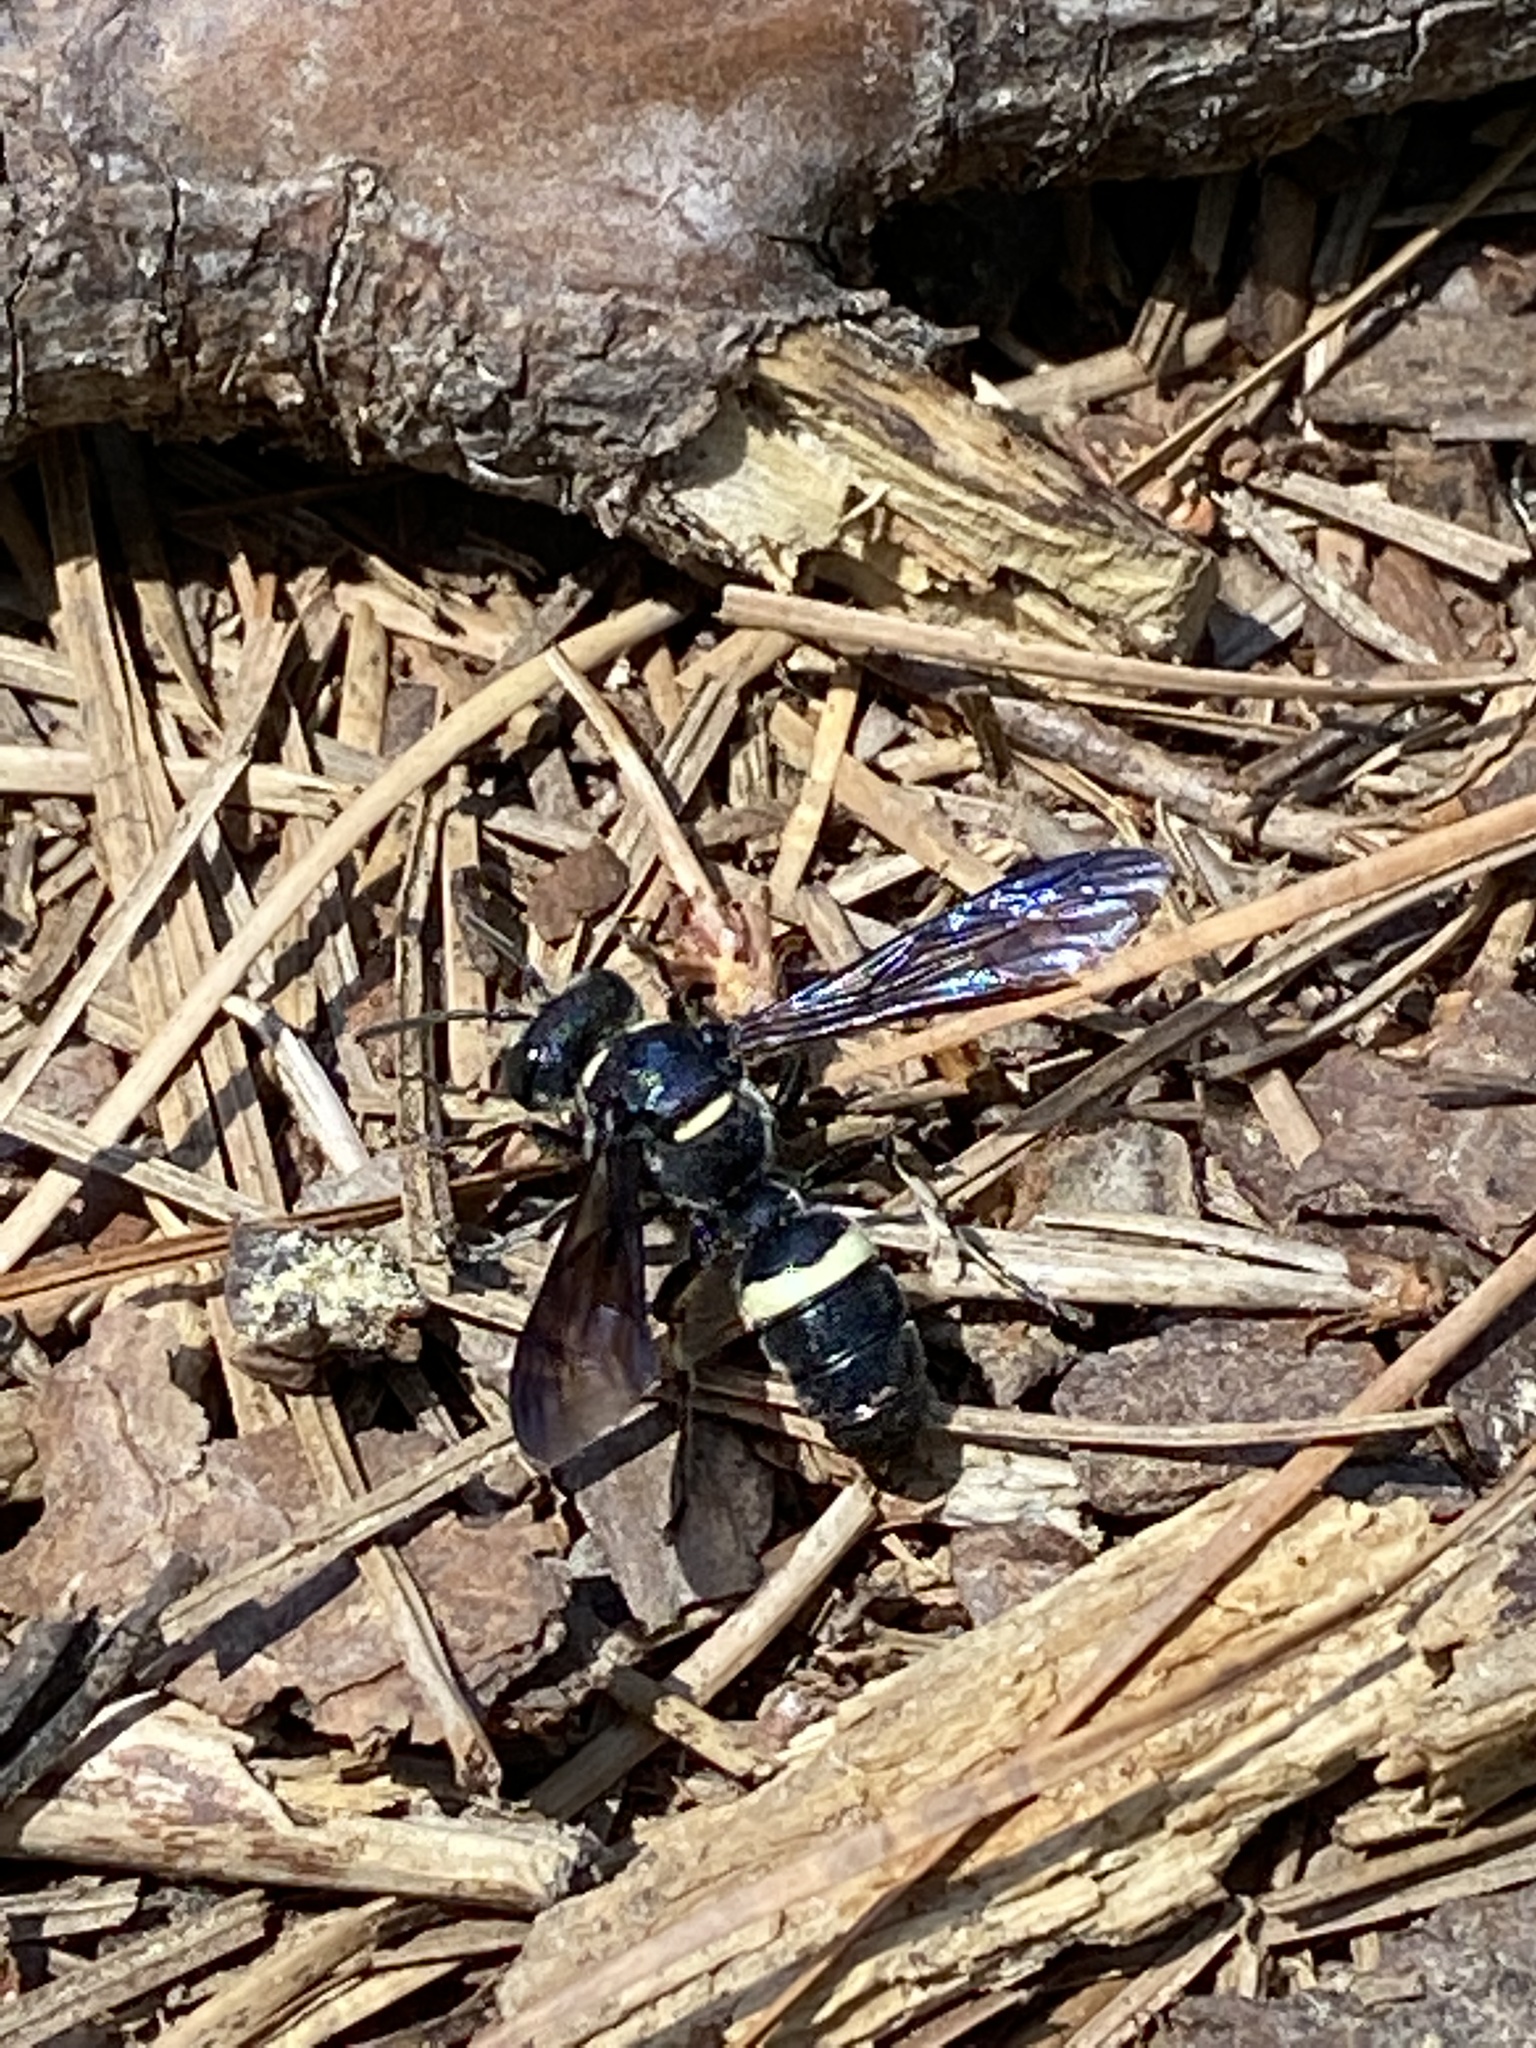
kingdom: Animalia
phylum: Arthropoda
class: Insecta
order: Hymenoptera
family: Crabronidae
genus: Cerceris
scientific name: Cerceris fumipennis
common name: Smokey-winged beetle bandit wasp
